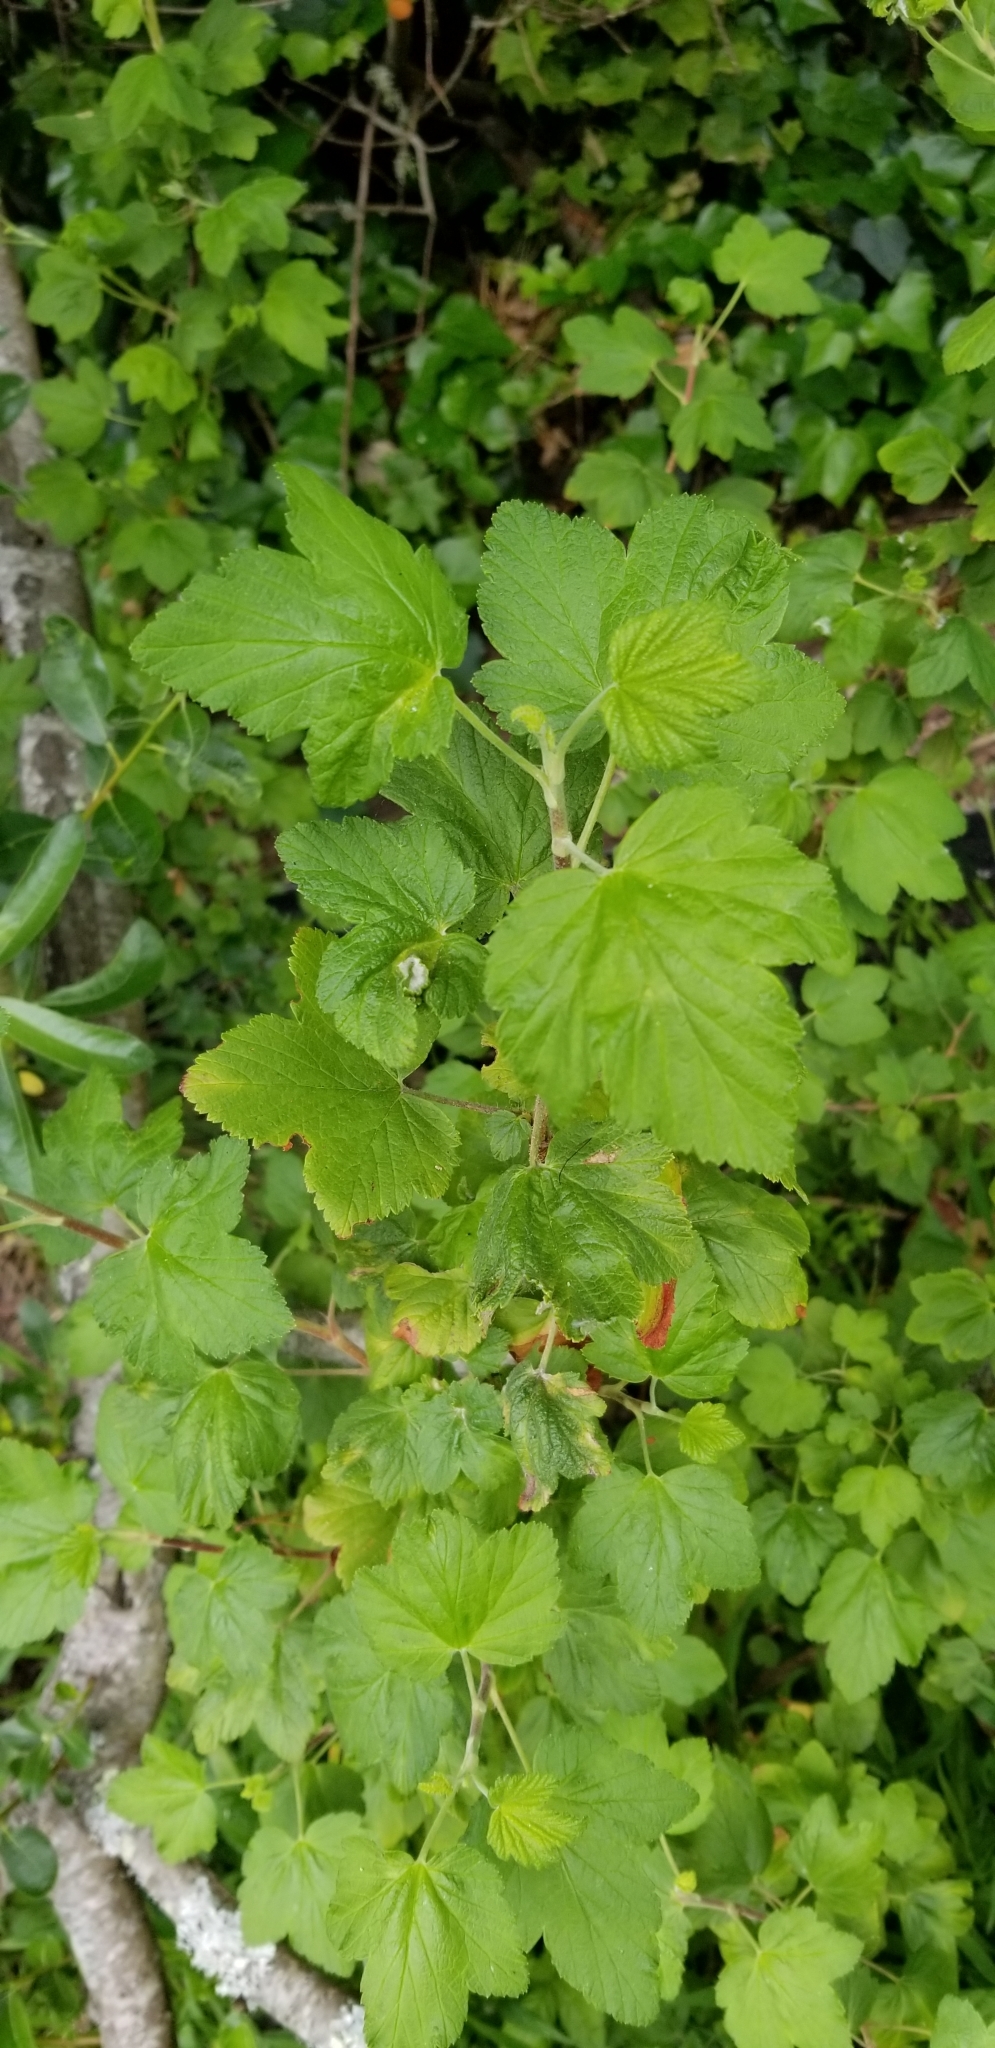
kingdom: Plantae
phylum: Tracheophyta
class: Magnoliopsida
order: Saxifragales
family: Grossulariaceae
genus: Ribes
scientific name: Ribes sanguineum
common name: Flowering currant
